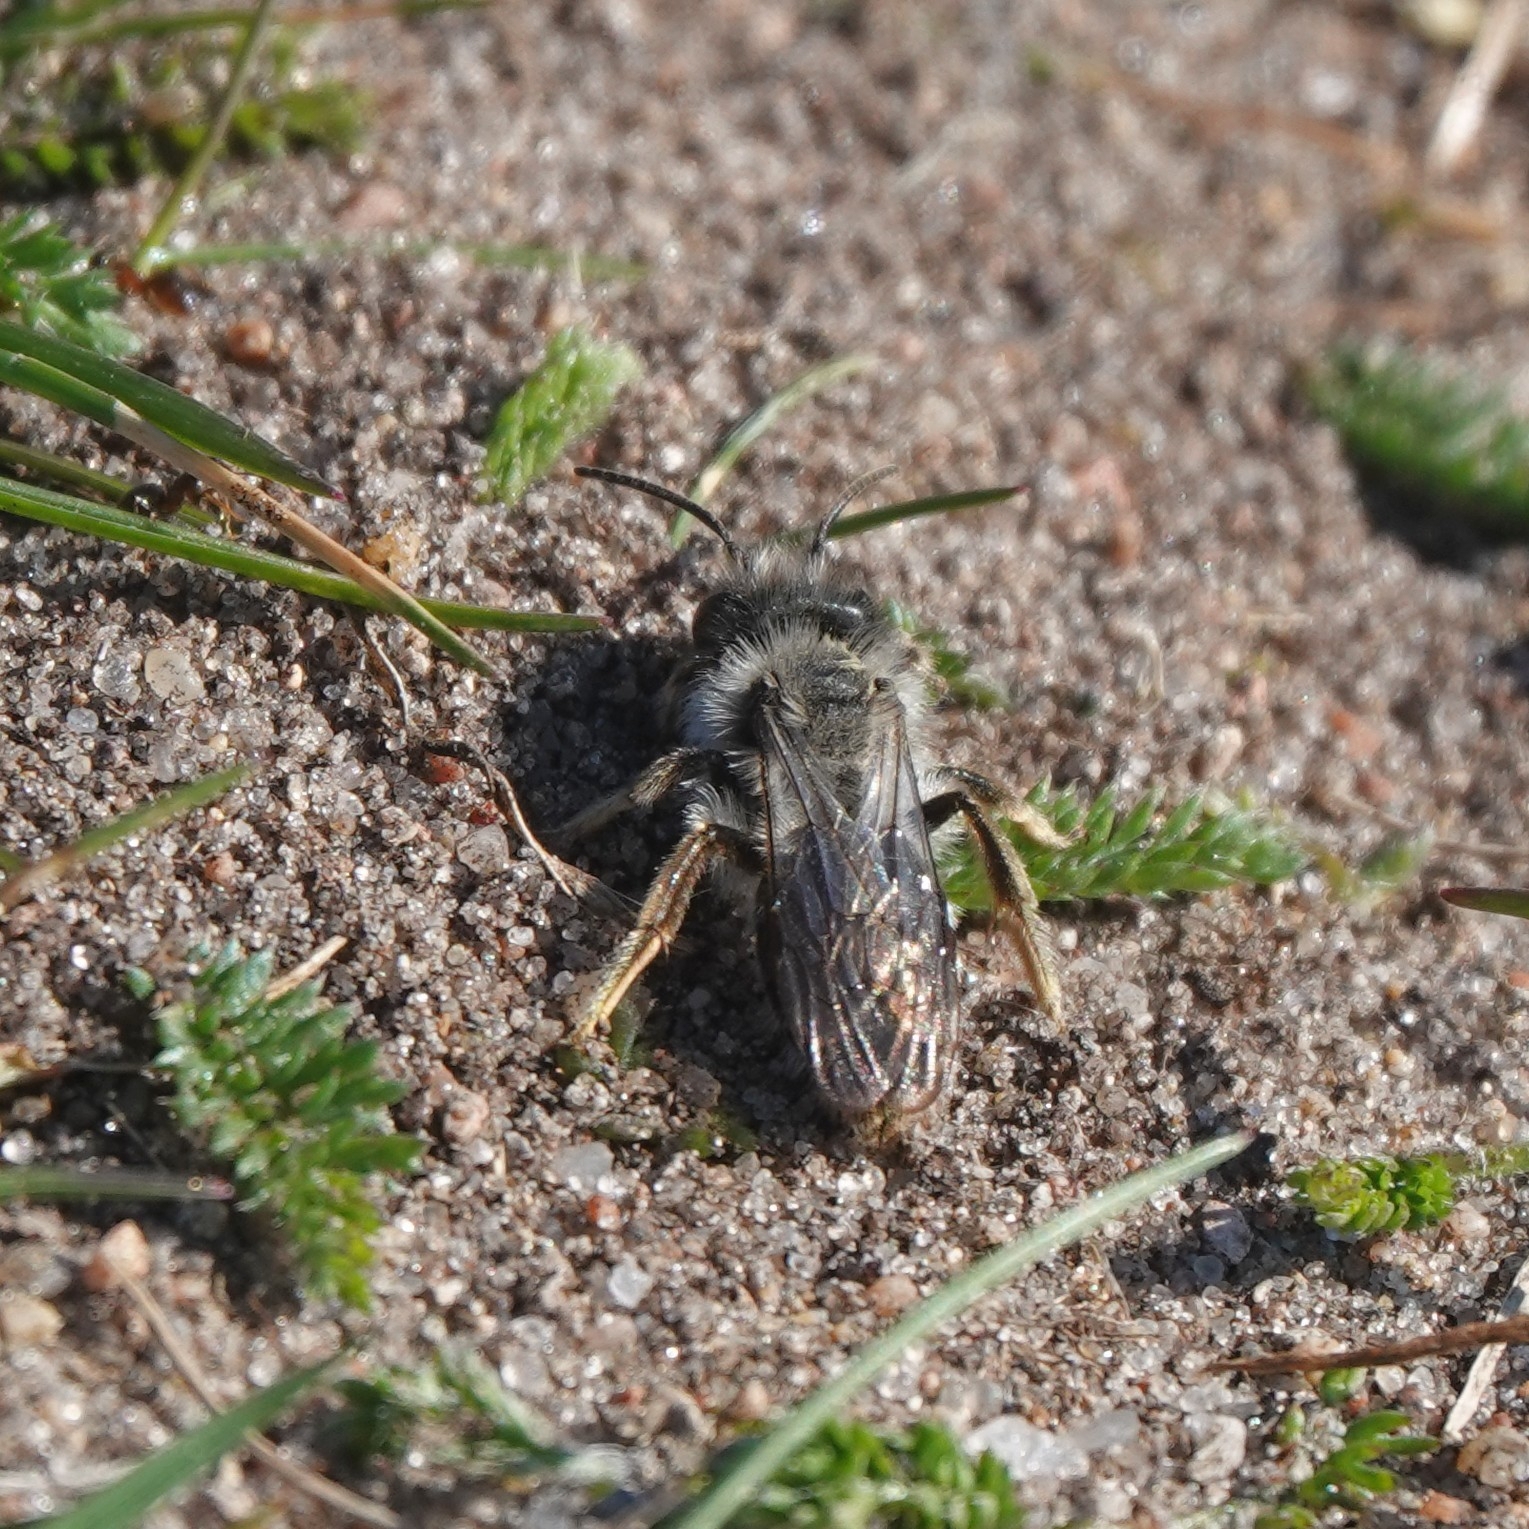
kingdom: Animalia
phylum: Arthropoda
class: Insecta
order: Hymenoptera
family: Andrenidae
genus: Andrena
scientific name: Andrena vaga
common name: Grey-backed mining bee
